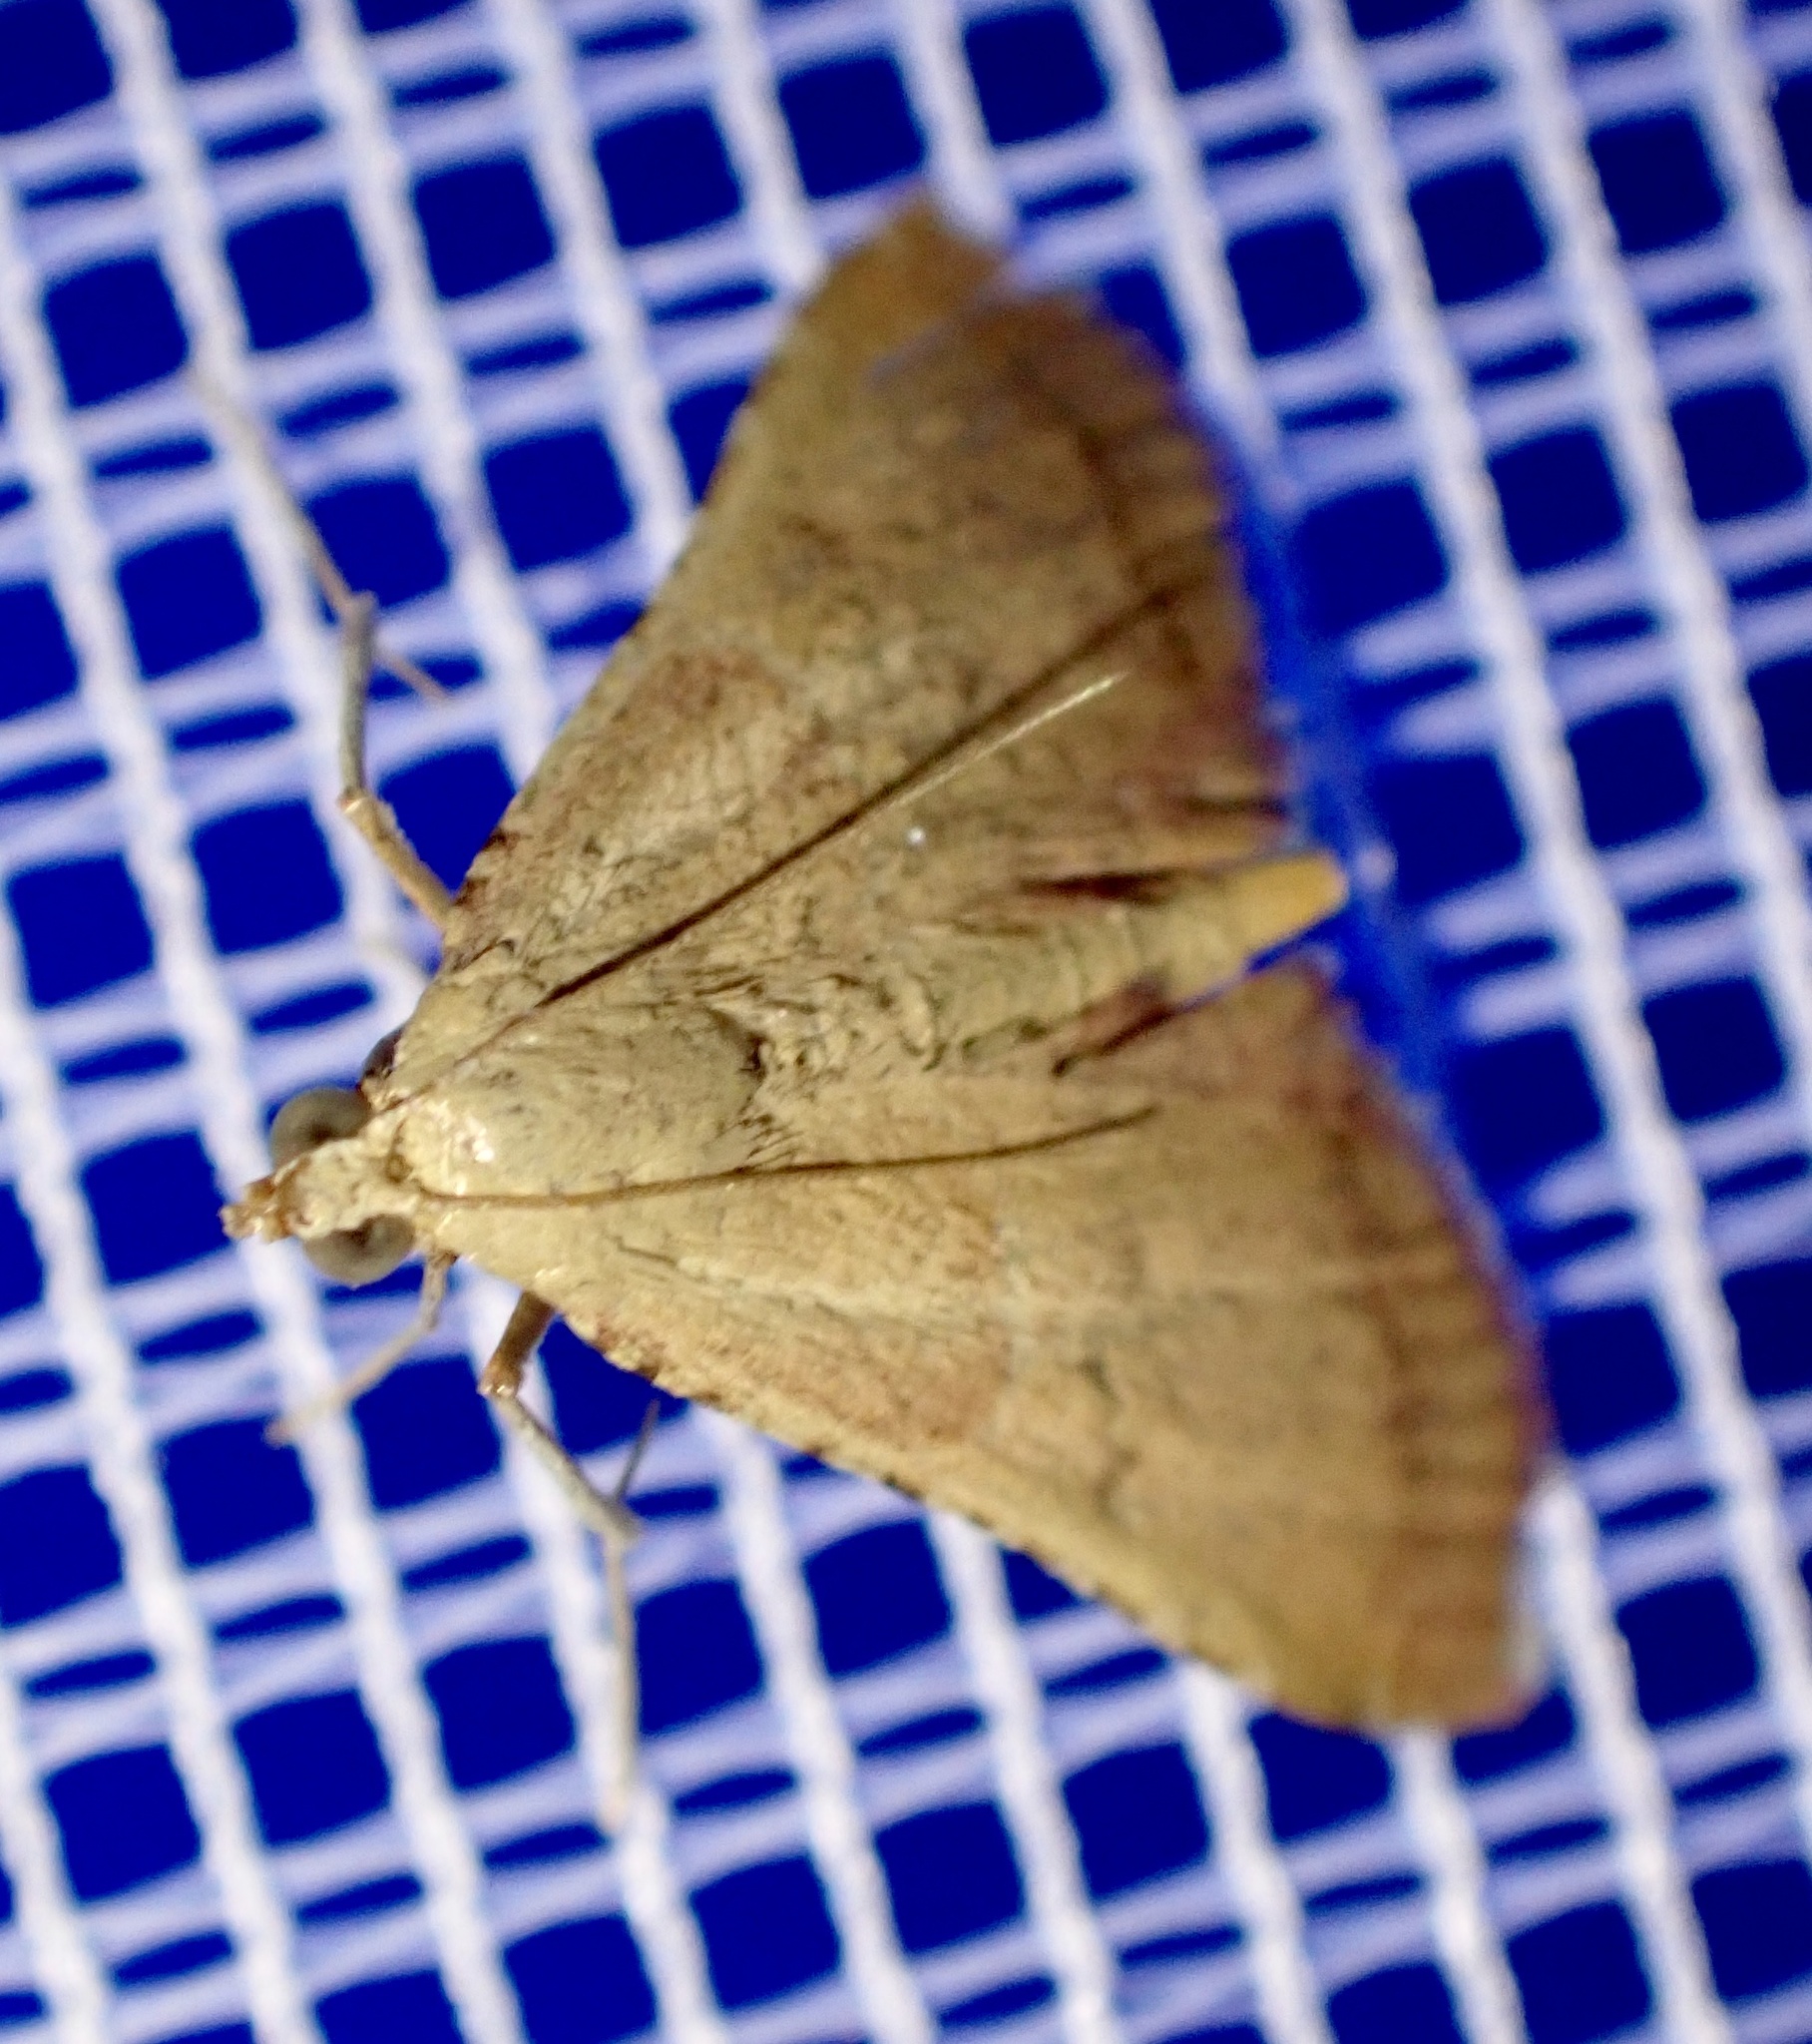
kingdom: Animalia
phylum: Arthropoda
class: Insecta
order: Lepidoptera
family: Pyralidae
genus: Endotricha
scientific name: Endotricha flammealis
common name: Rosy tabby
